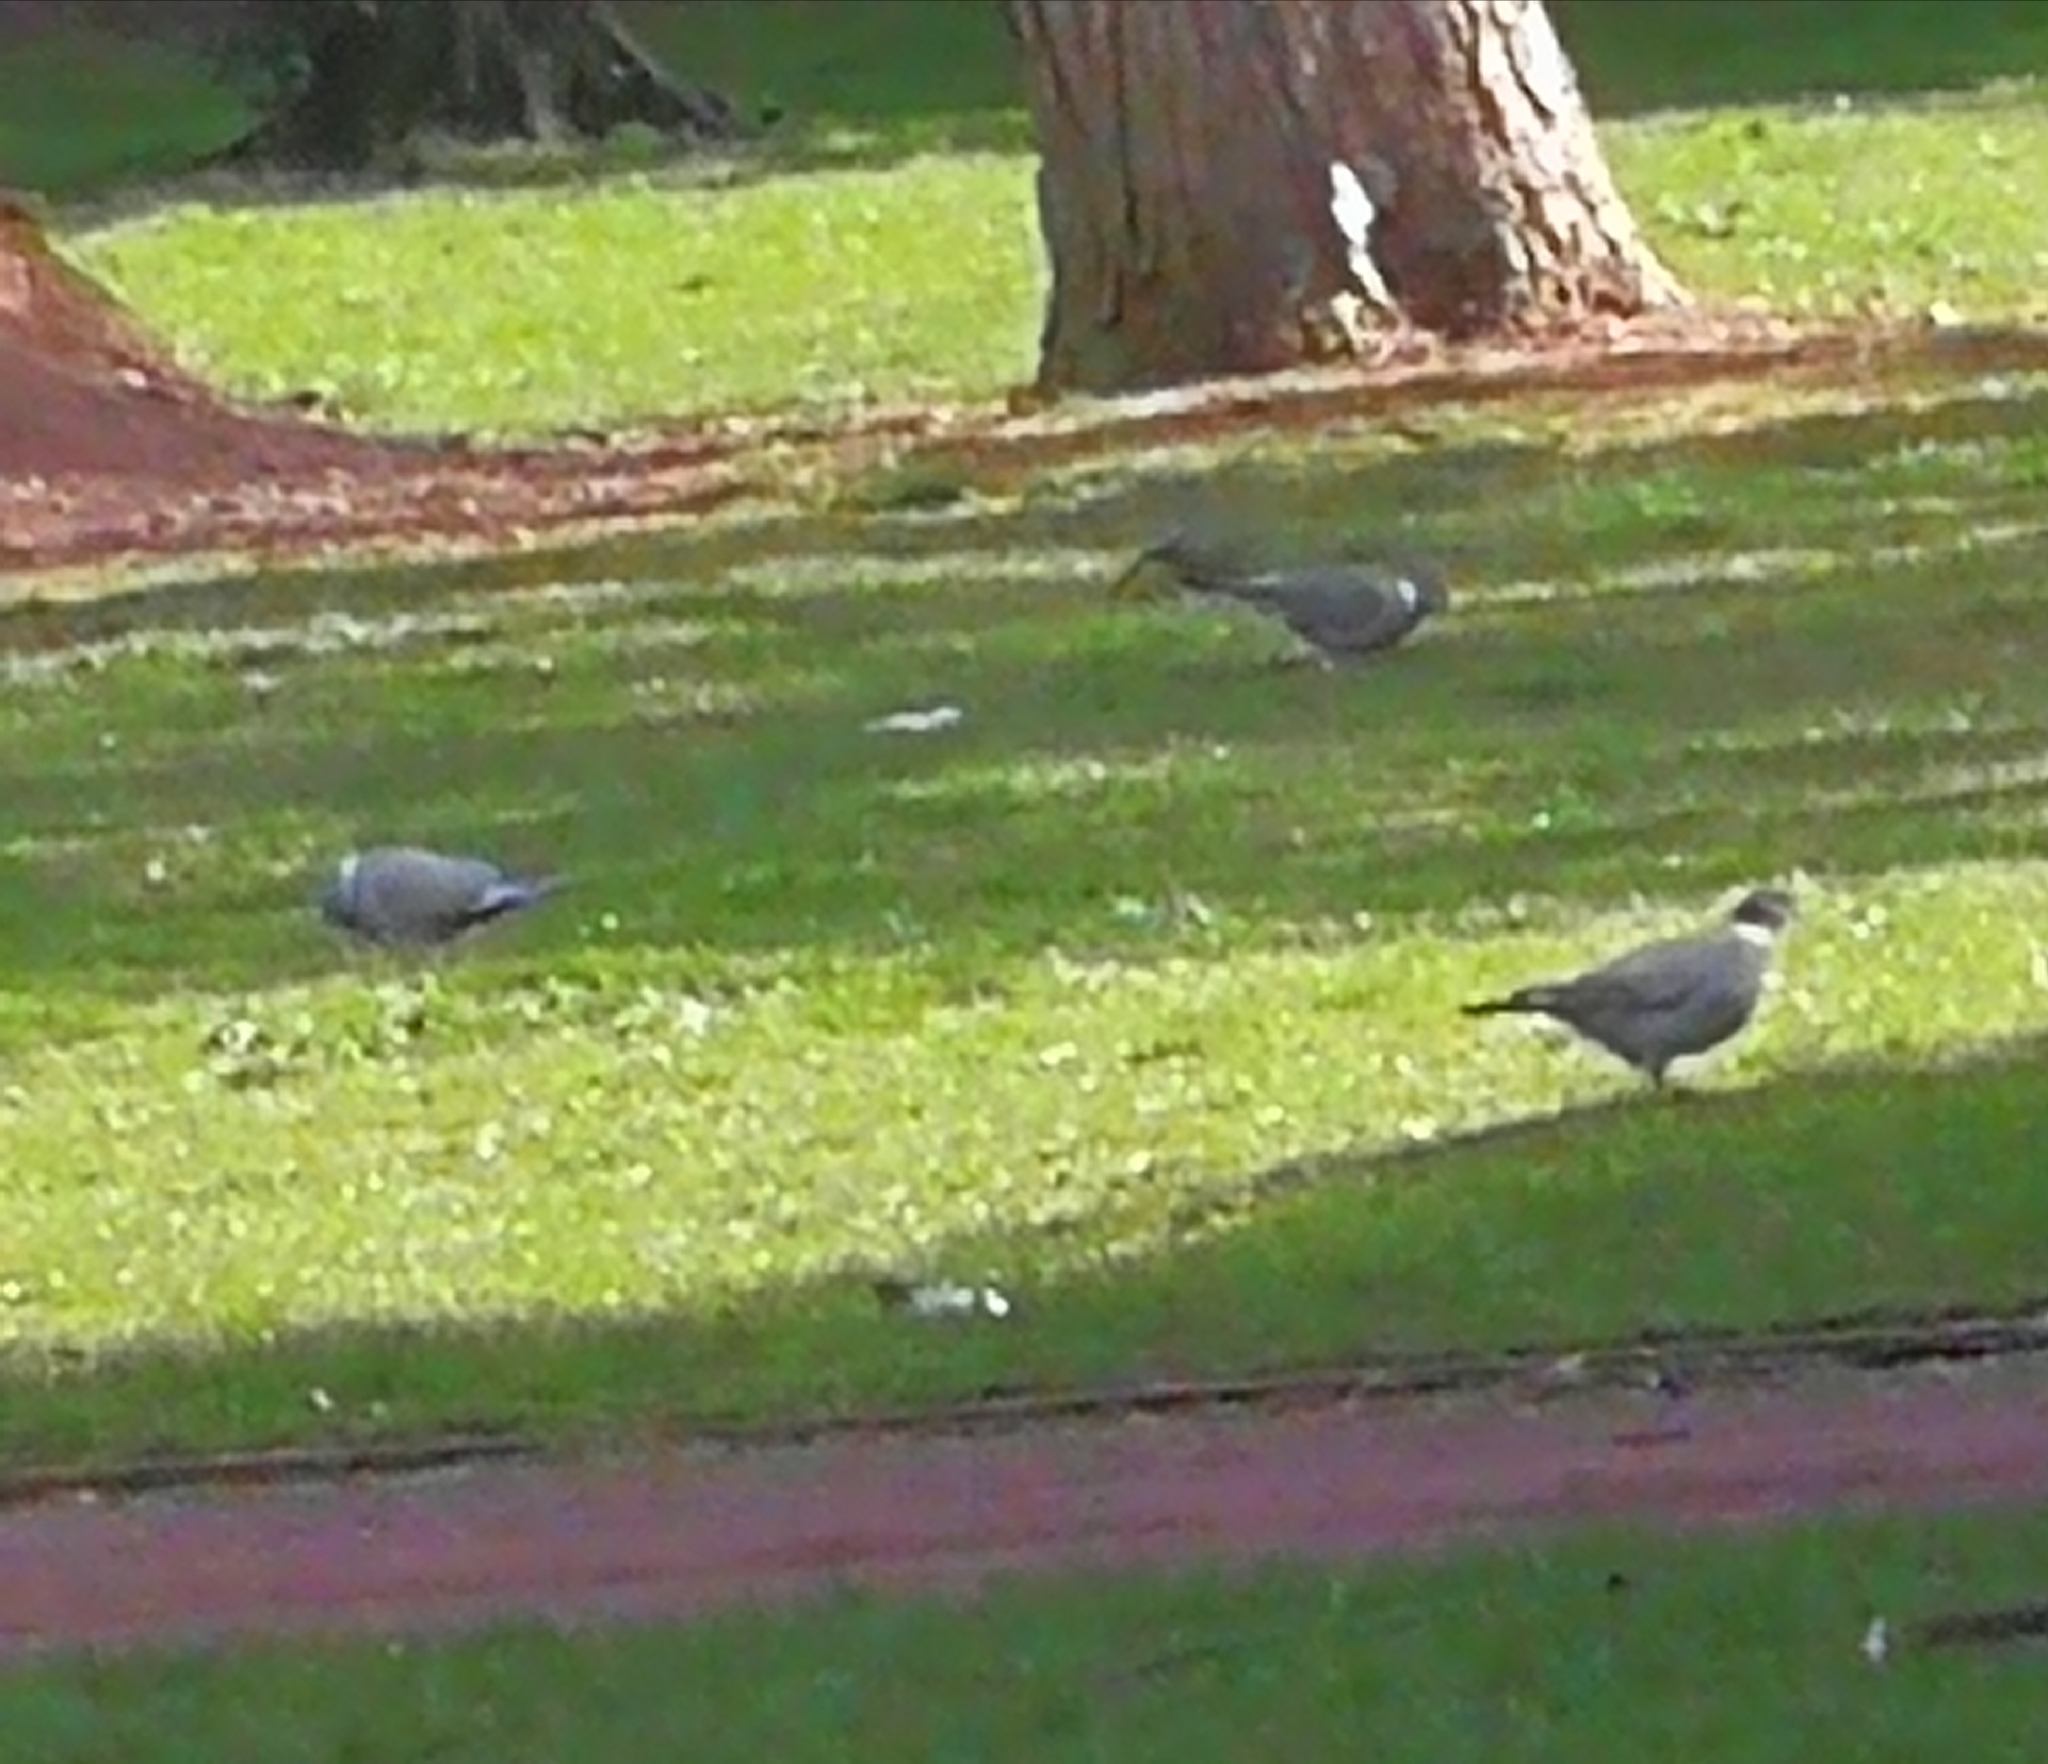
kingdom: Animalia
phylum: Chordata
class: Aves
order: Columbiformes
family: Columbidae
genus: Columba
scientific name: Columba palumbus
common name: Common wood pigeon
